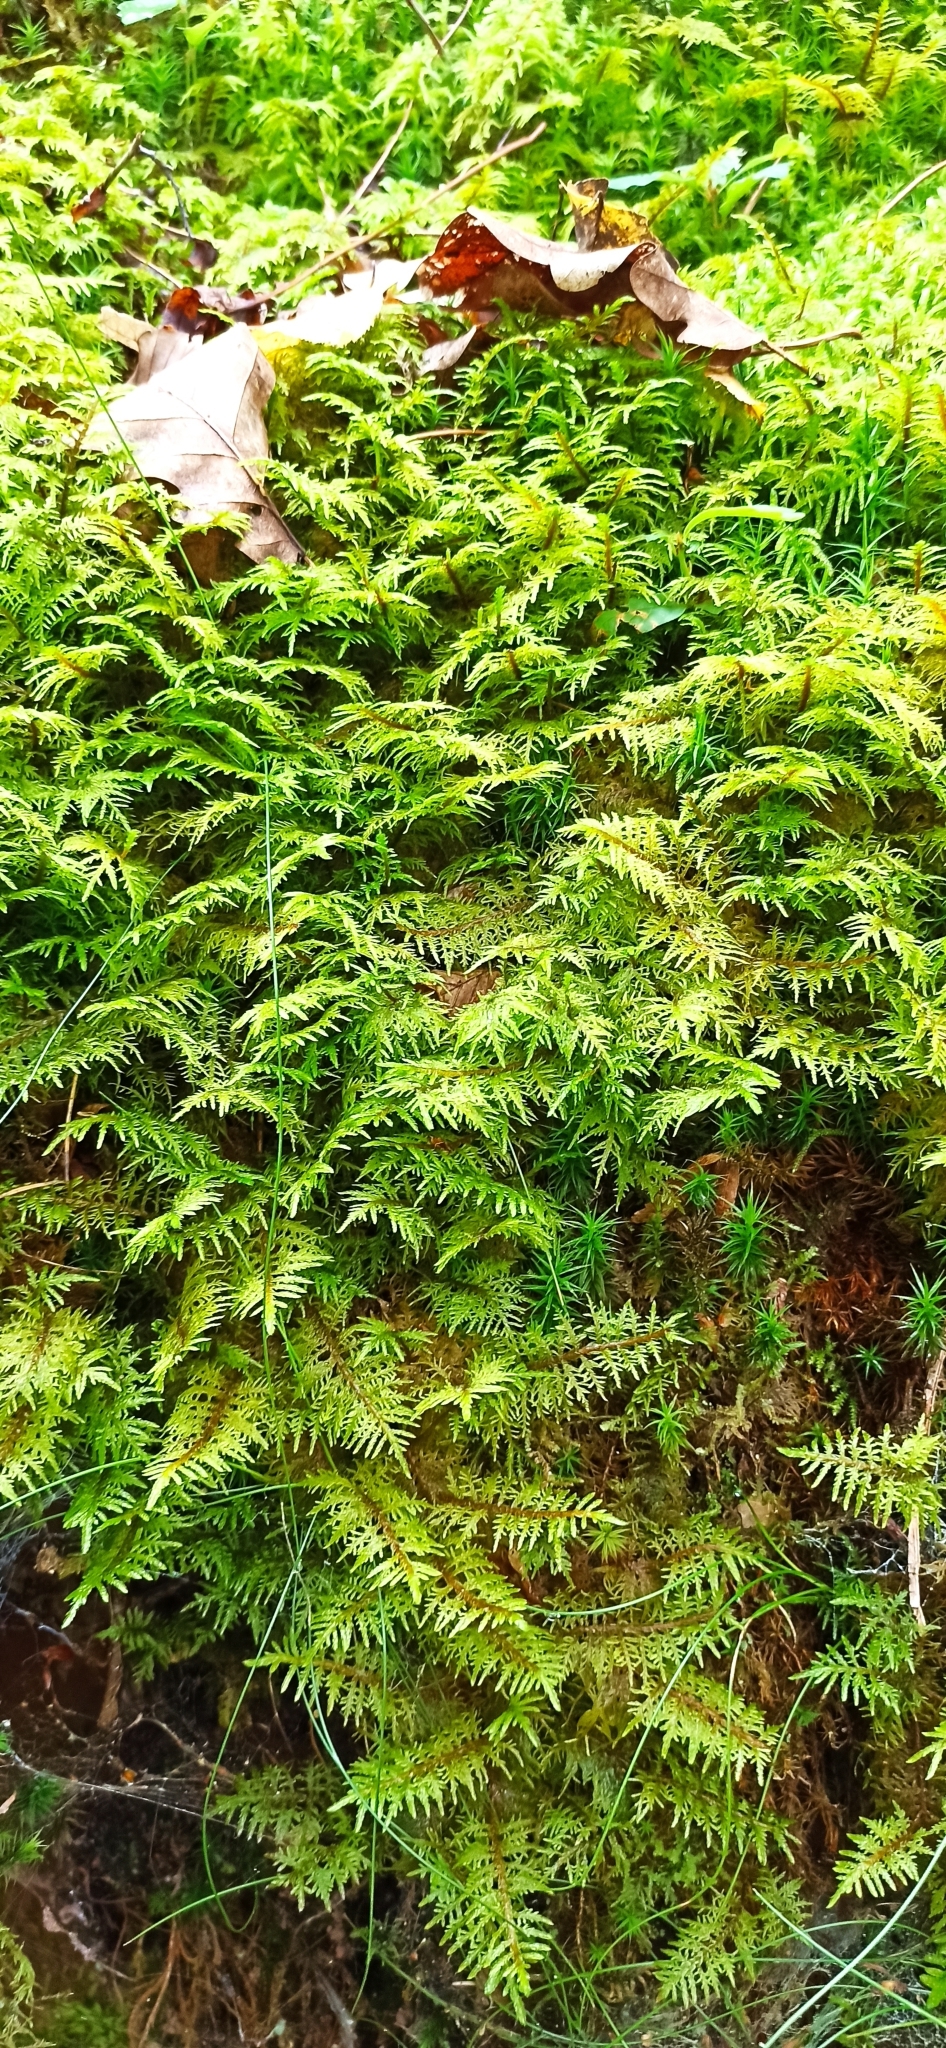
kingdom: Plantae
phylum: Bryophyta
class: Bryopsida
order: Hypnales
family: Hylocomiaceae
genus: Hylocomium
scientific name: Hylocomium splendens
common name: Stairstep moss
